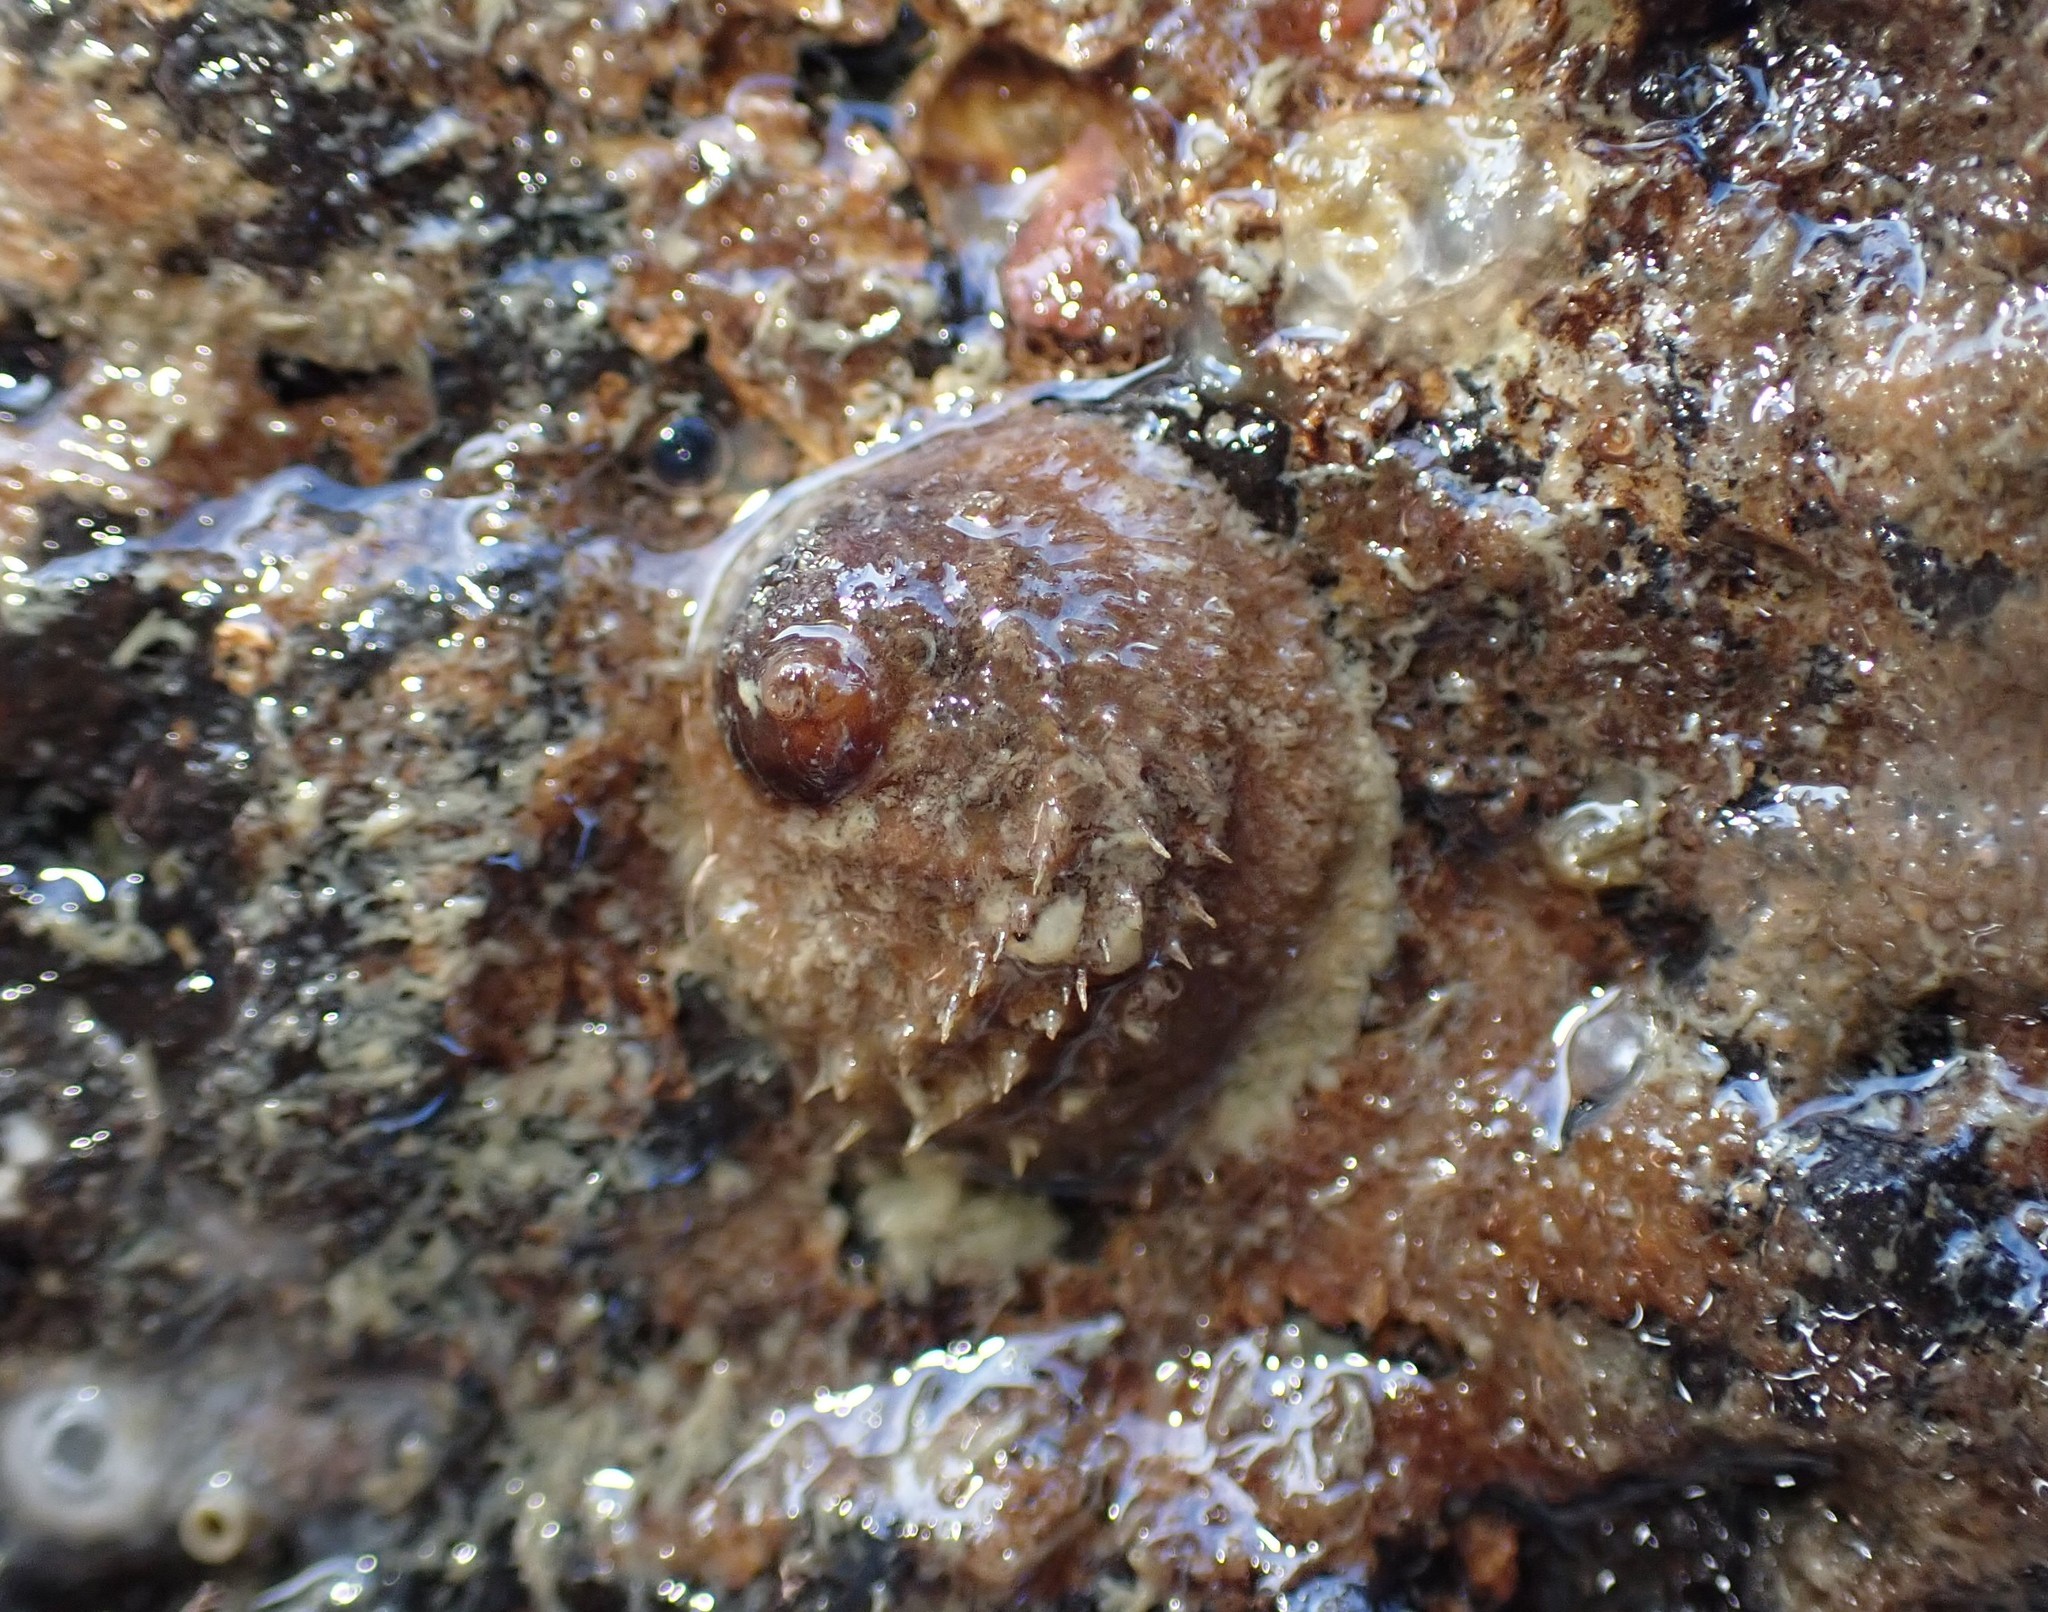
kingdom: Animalia
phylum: Mollusca
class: Gastropoda
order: Littorinimorpha
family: Calyptraeidae
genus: Sigapatella
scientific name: Sigapatella novaezelandiae
